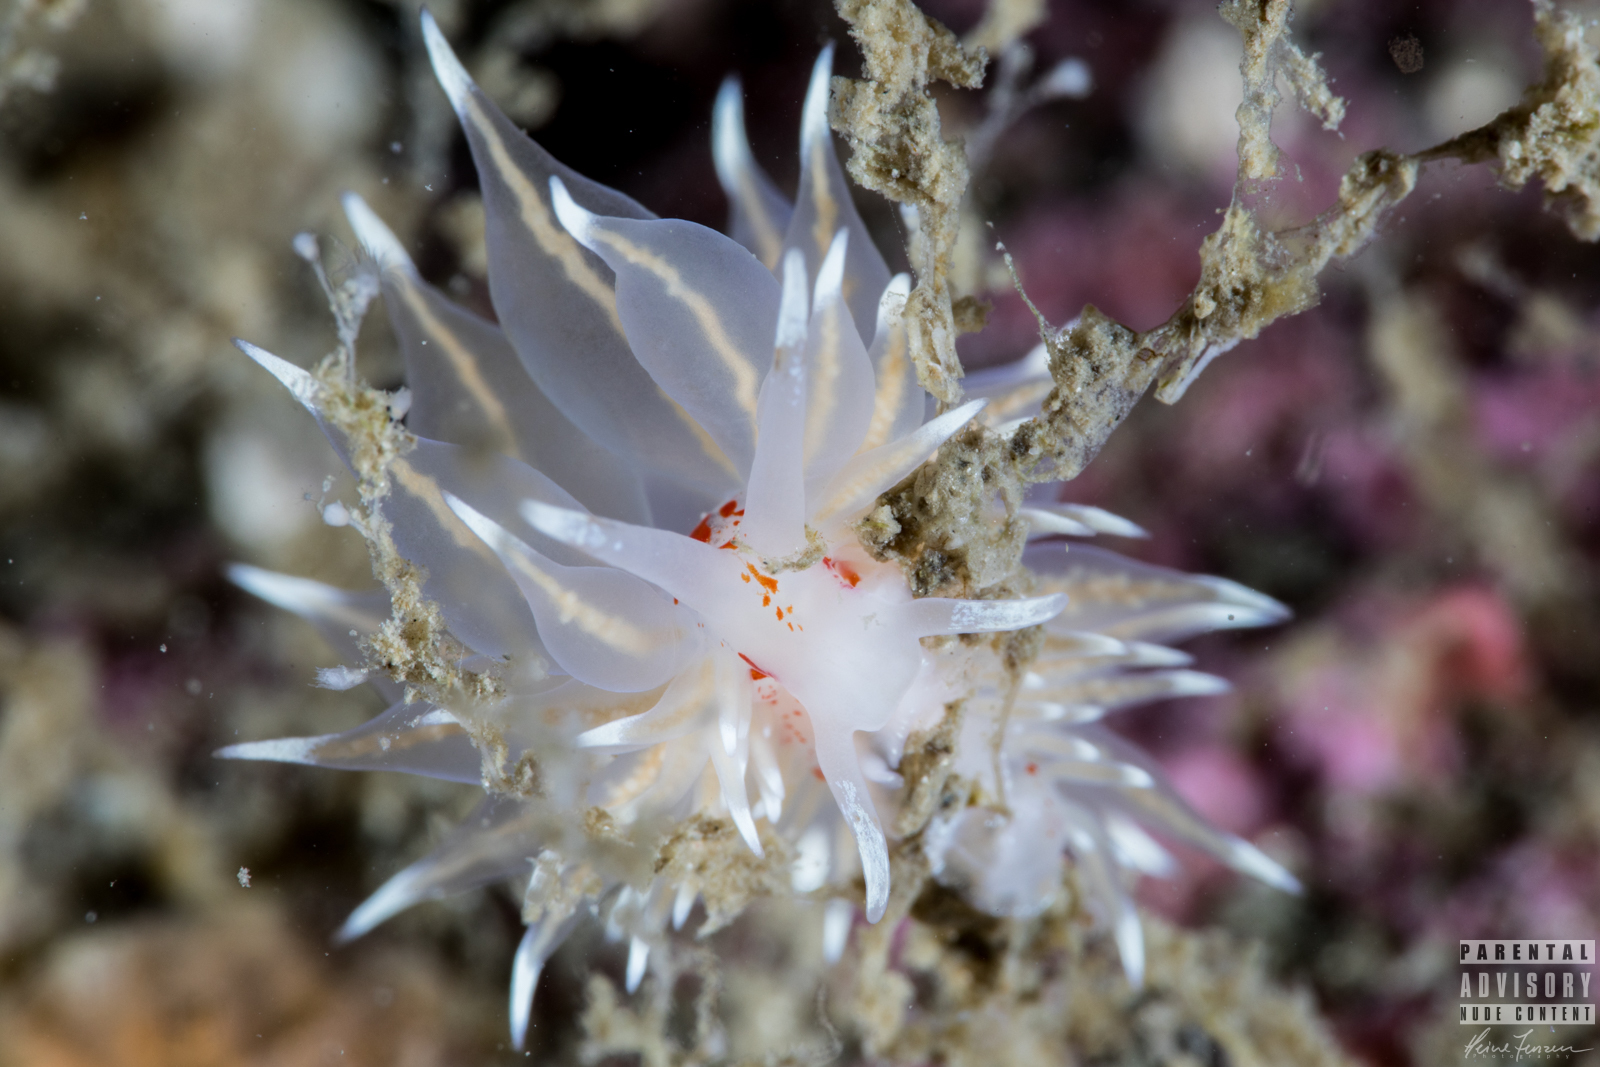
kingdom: Animalia
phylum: Mollusca
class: Gastropoda
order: Nudibranchia
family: Eubranchidae
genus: Amphorina
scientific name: Amphorina linensis
